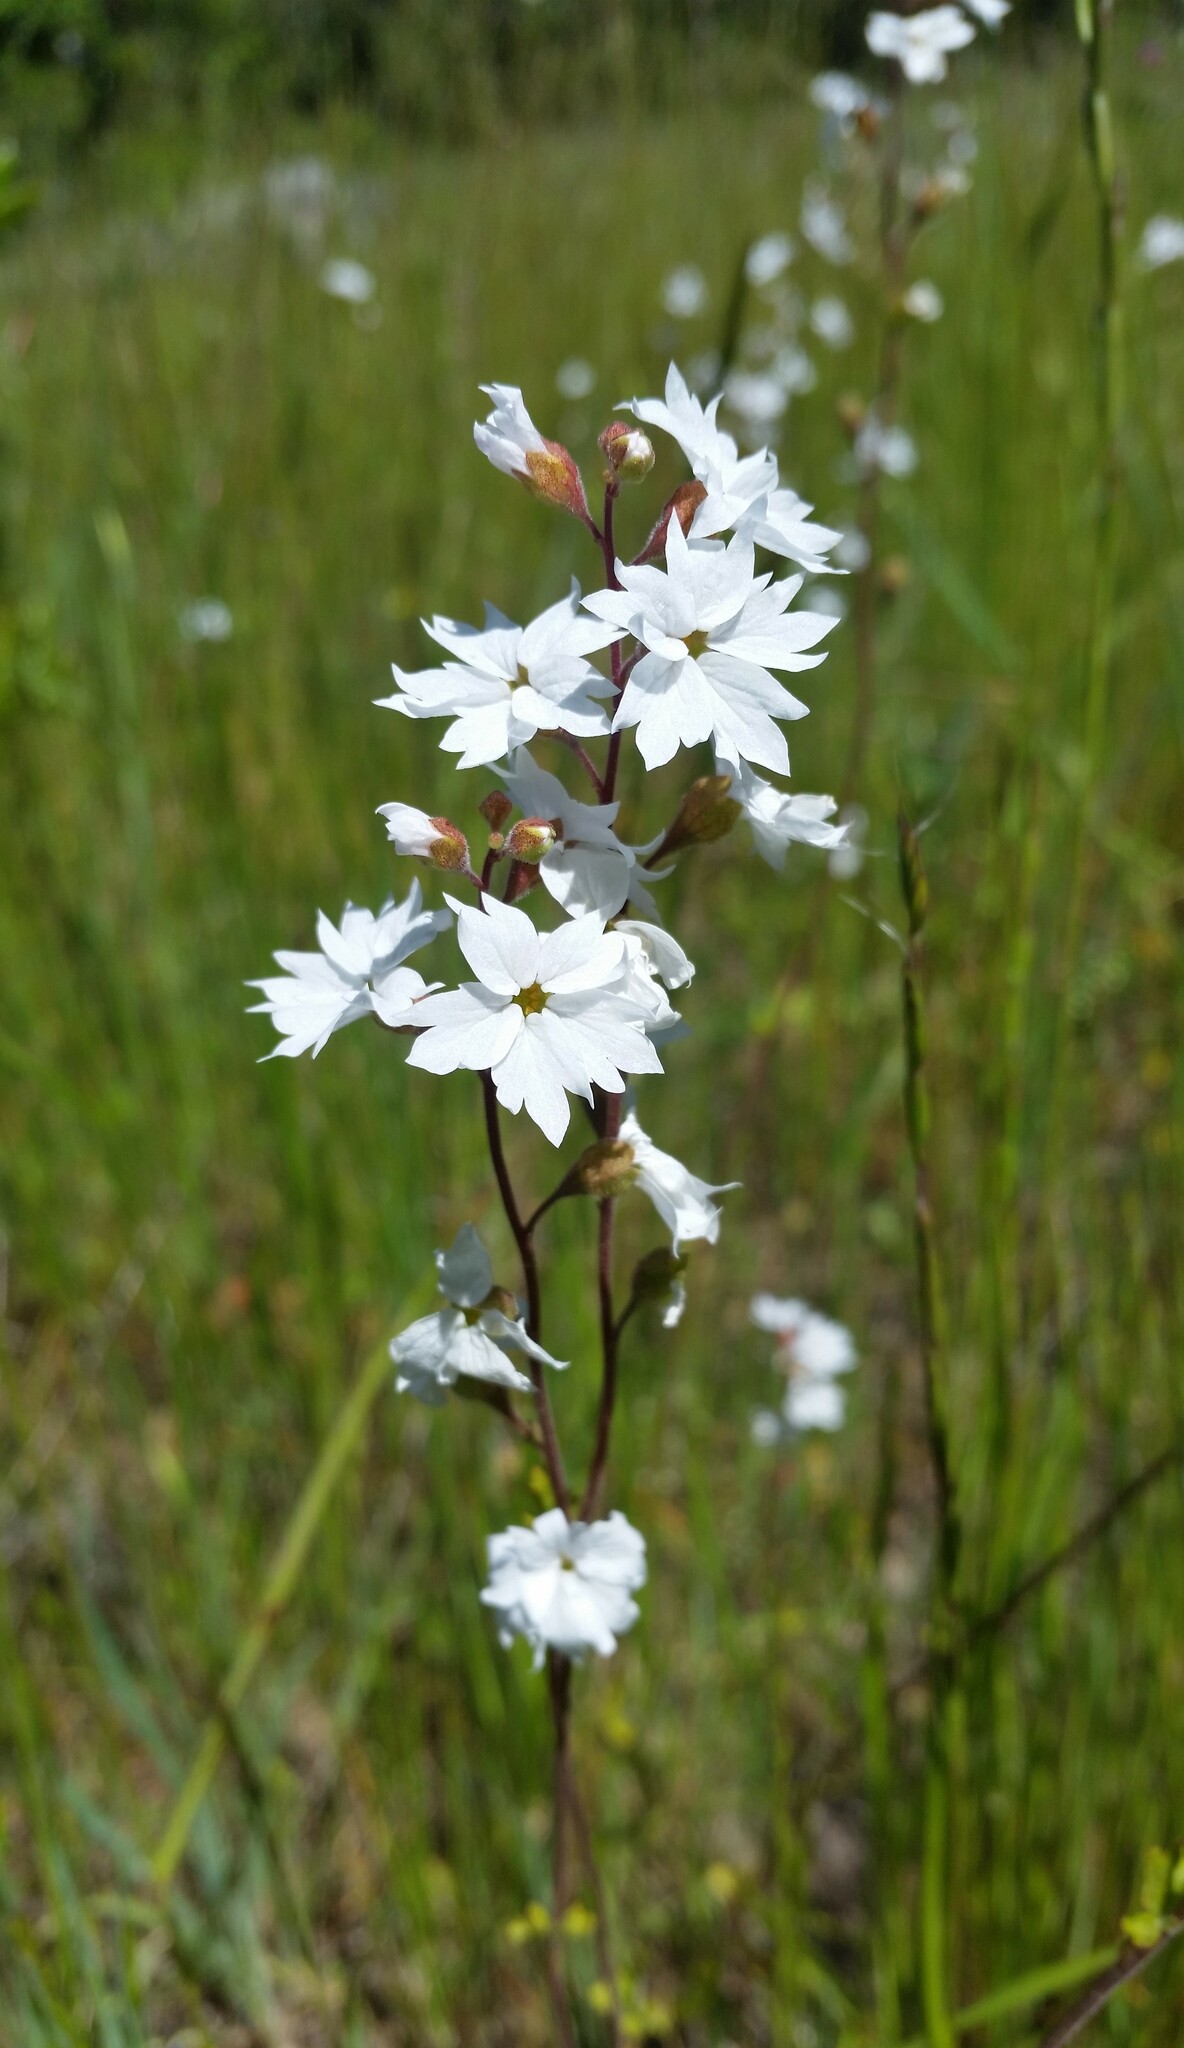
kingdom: Plantae
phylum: Tracheophyta
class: Magnoliopsida
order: Saxifragales
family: Saxifragaceae
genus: Lithophragma
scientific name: Lithophragma affine
